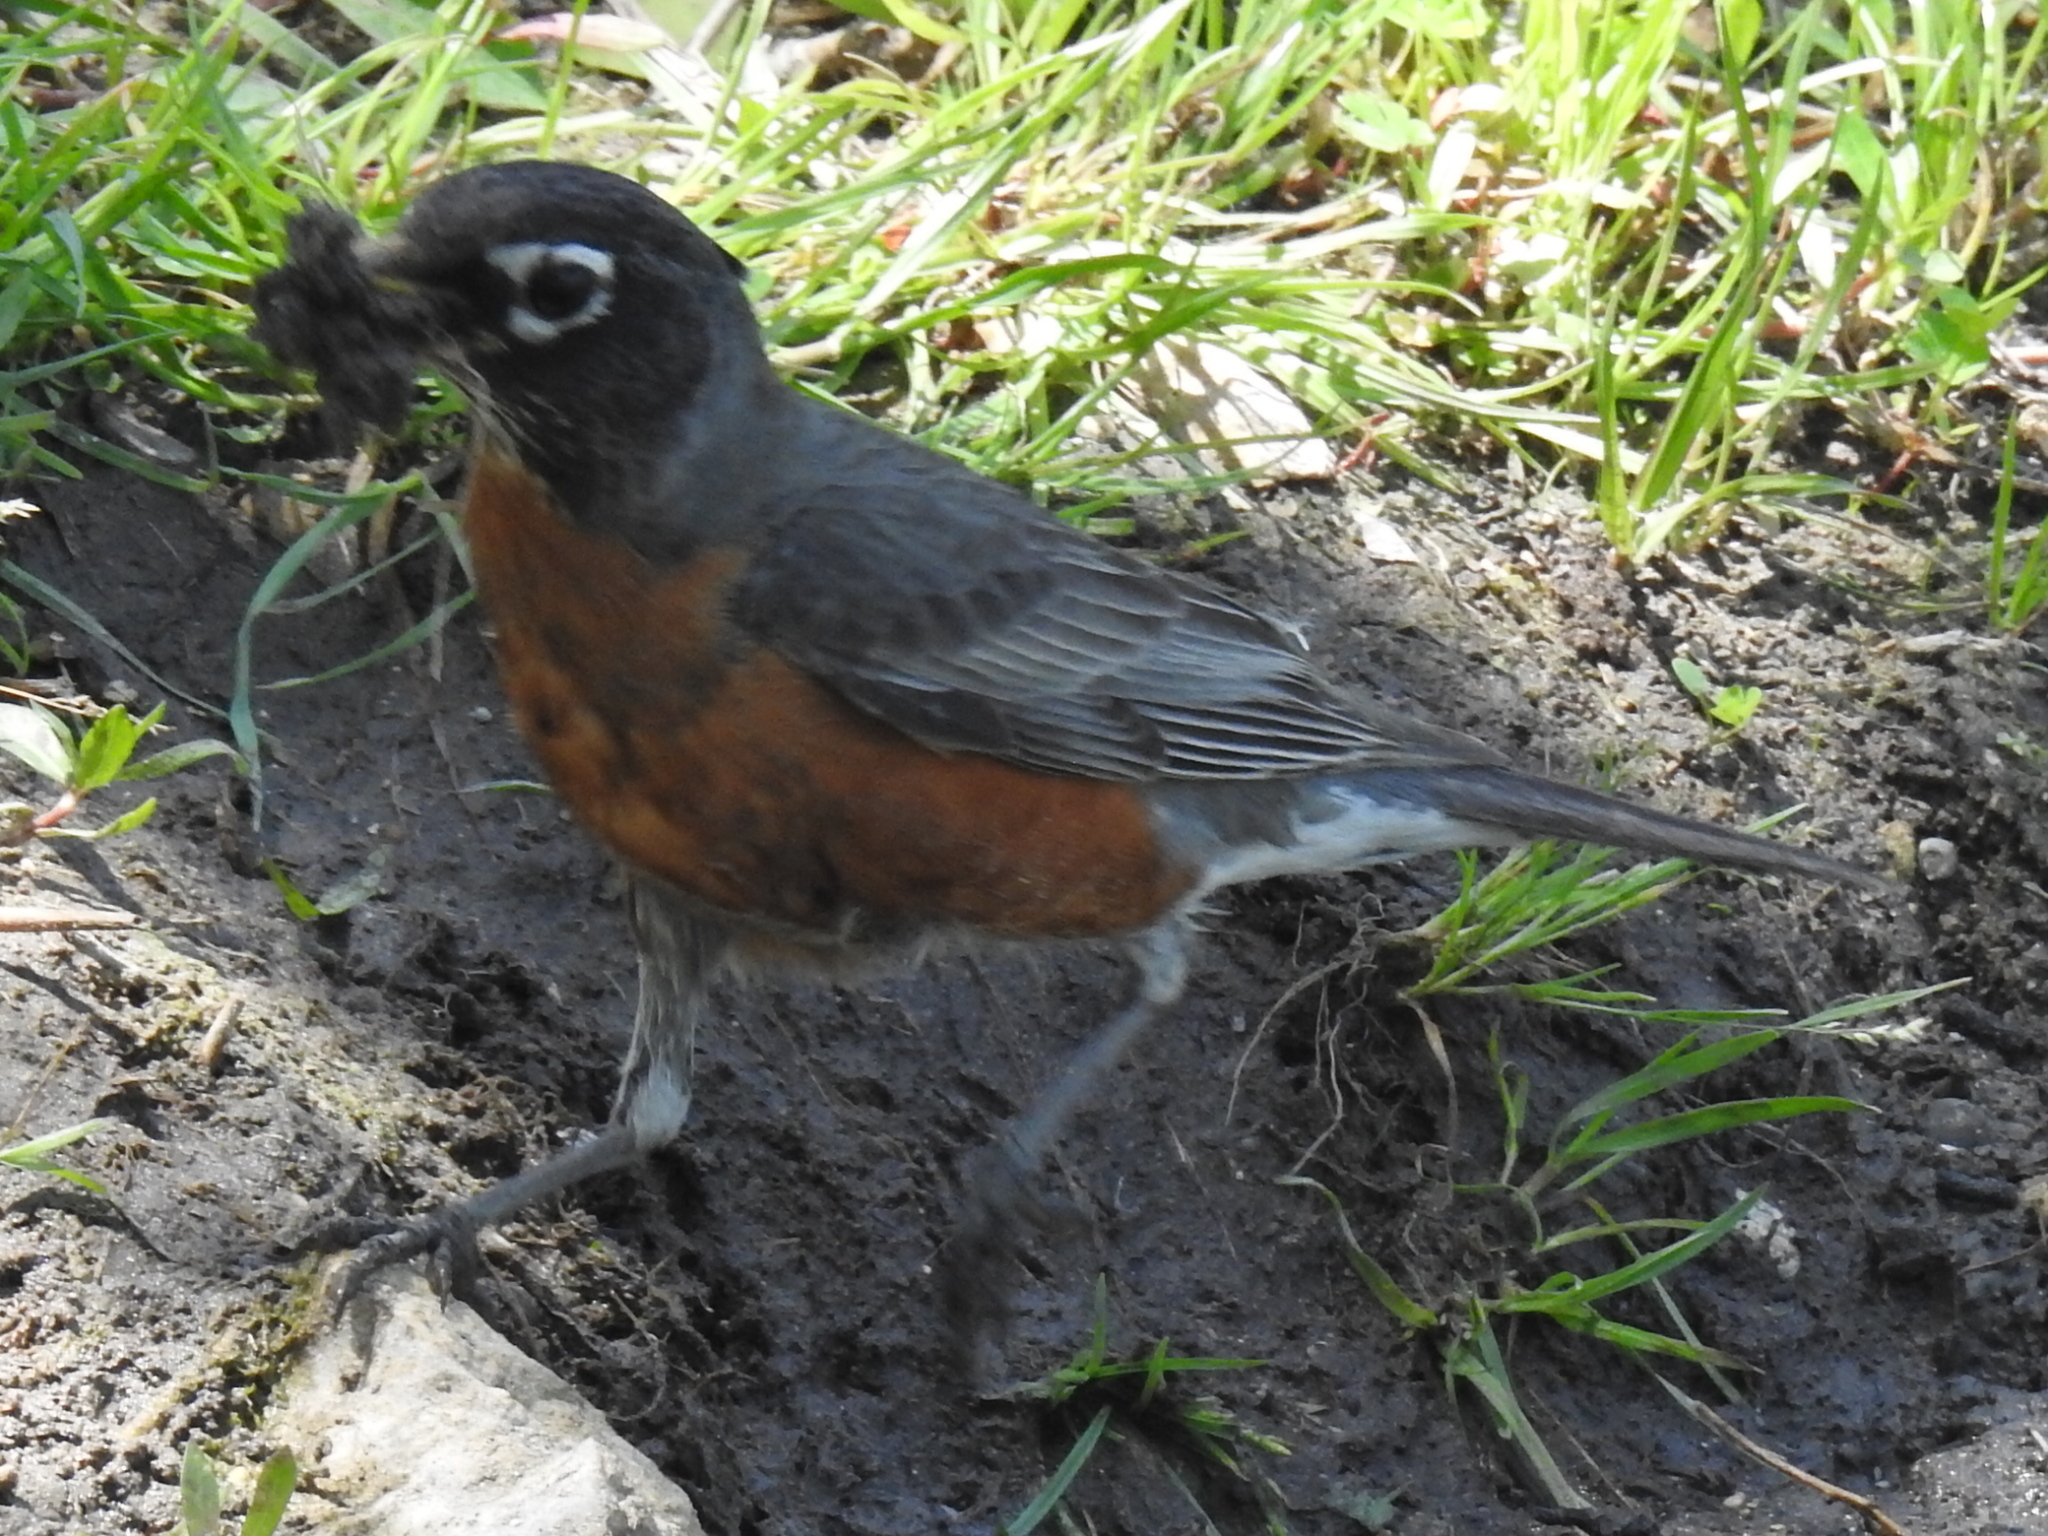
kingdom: Animalia
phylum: Chordata
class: Aves
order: Passeriformes
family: Turdidae
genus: Turdus
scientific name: Turdus migratorius
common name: American robin
